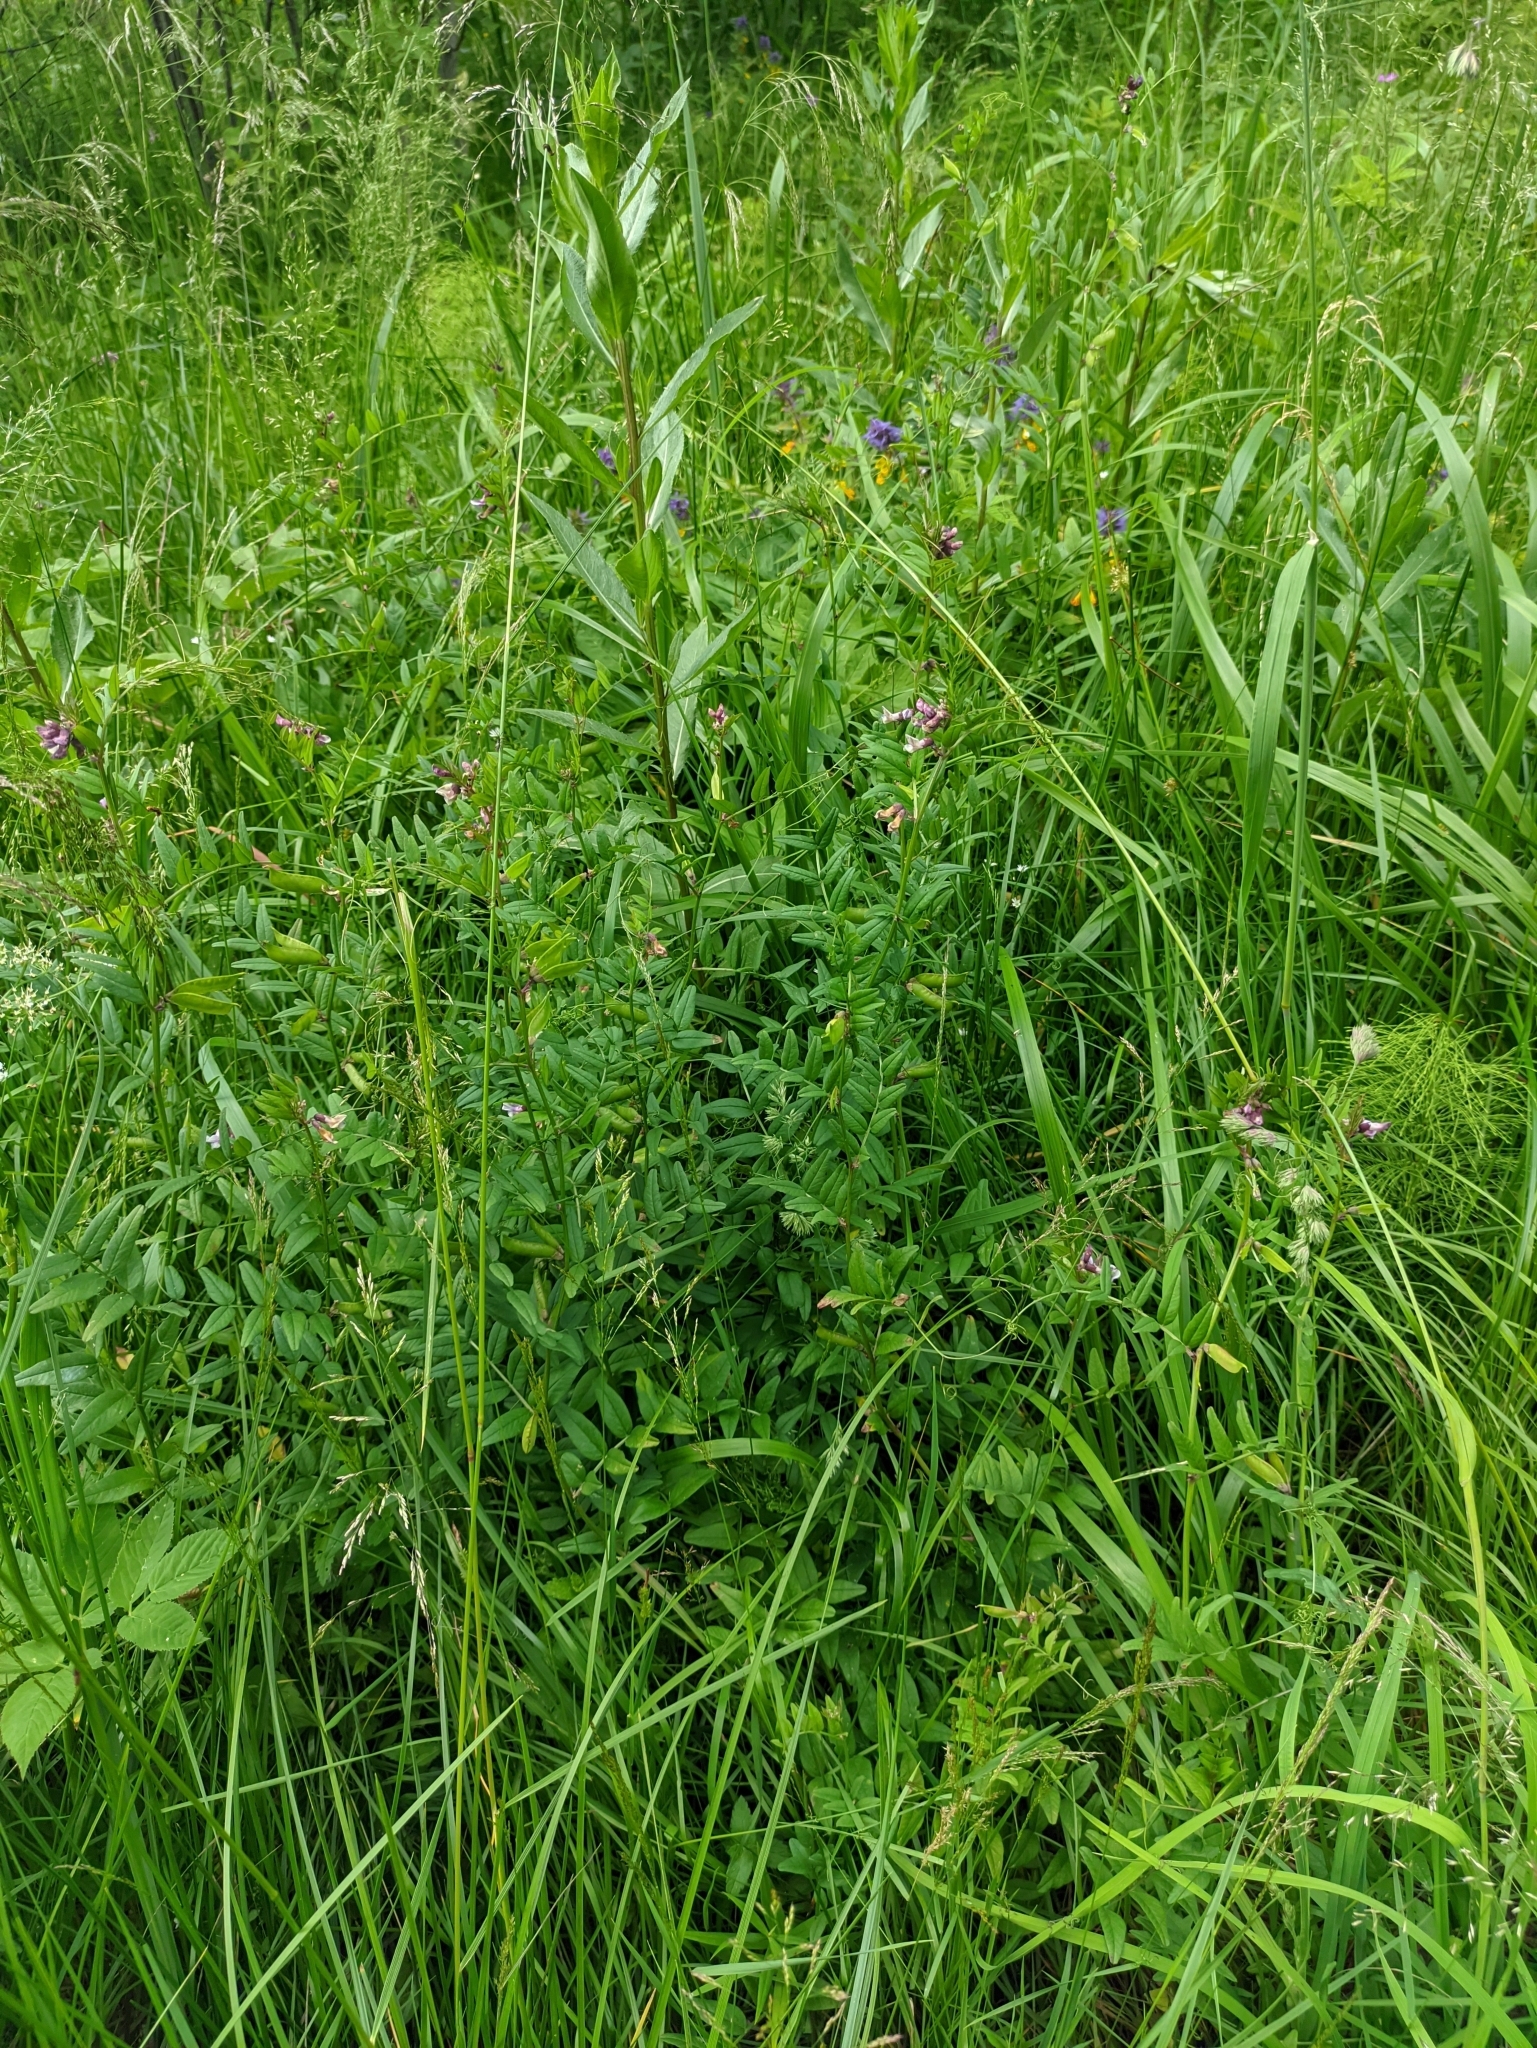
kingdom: Plantae
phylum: Tracheophyta
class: Magnoliopsida
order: Fabales
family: Fabaceae
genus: Vicia
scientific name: Vicia sepium
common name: Bush vetch
